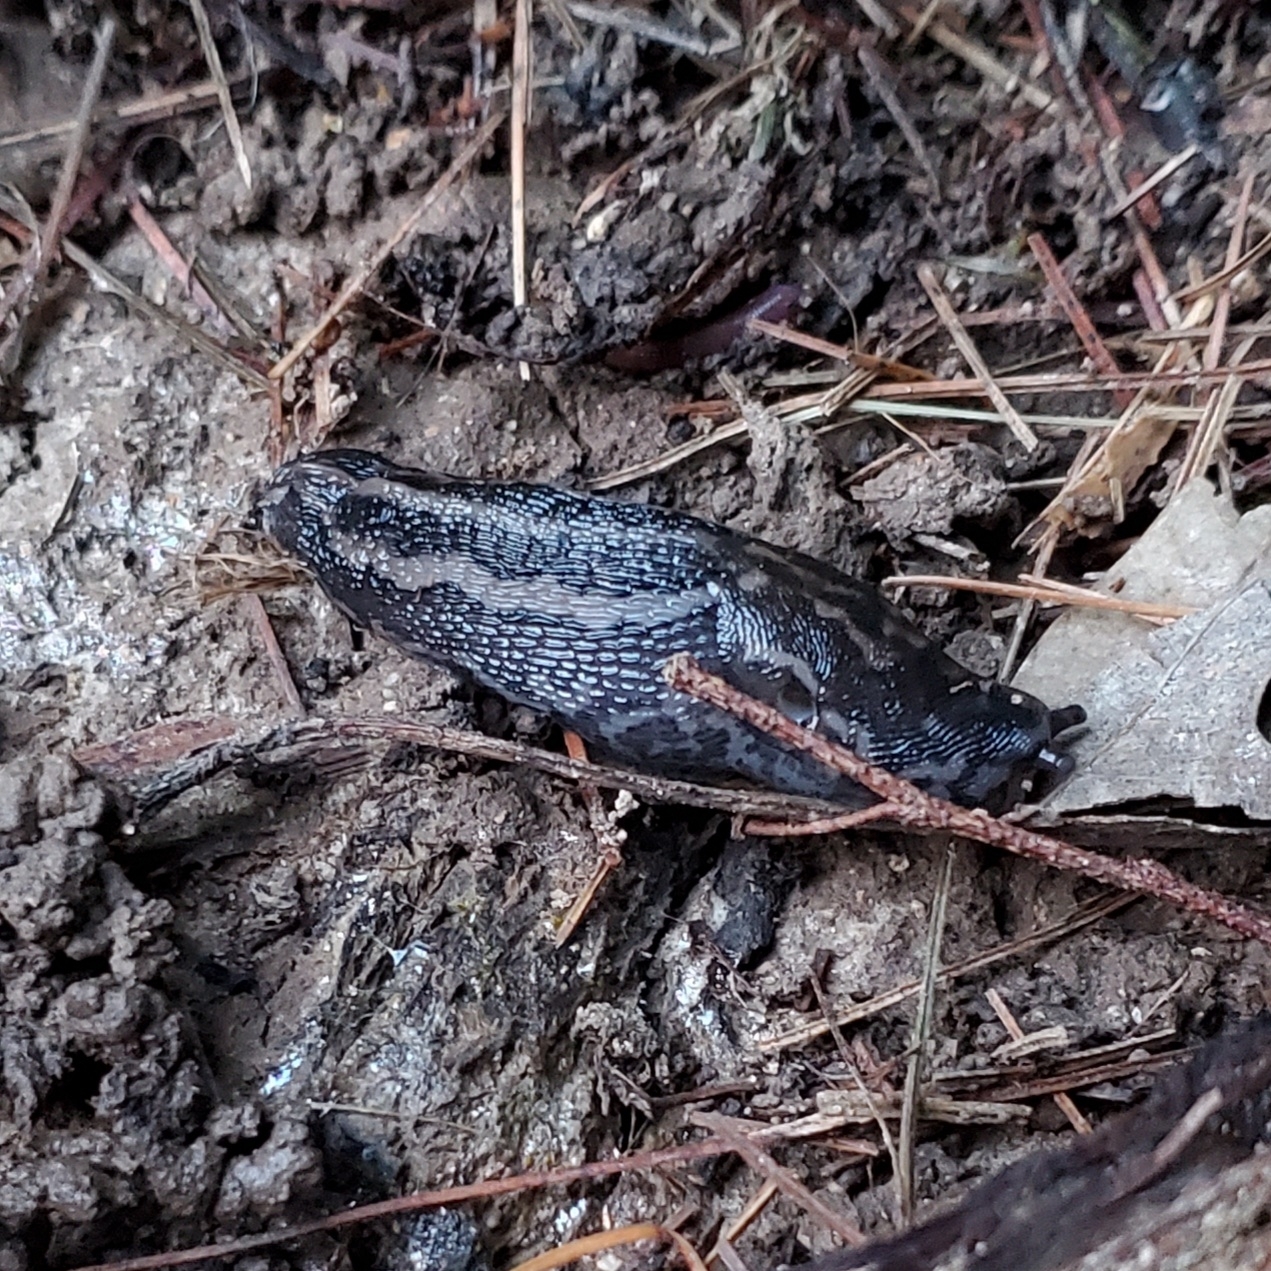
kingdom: Animalia
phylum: Mollusca
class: Gastropoda
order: Stylommatophora
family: Limacidae
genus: Limax
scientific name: Limax maximus
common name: Great grey slug
